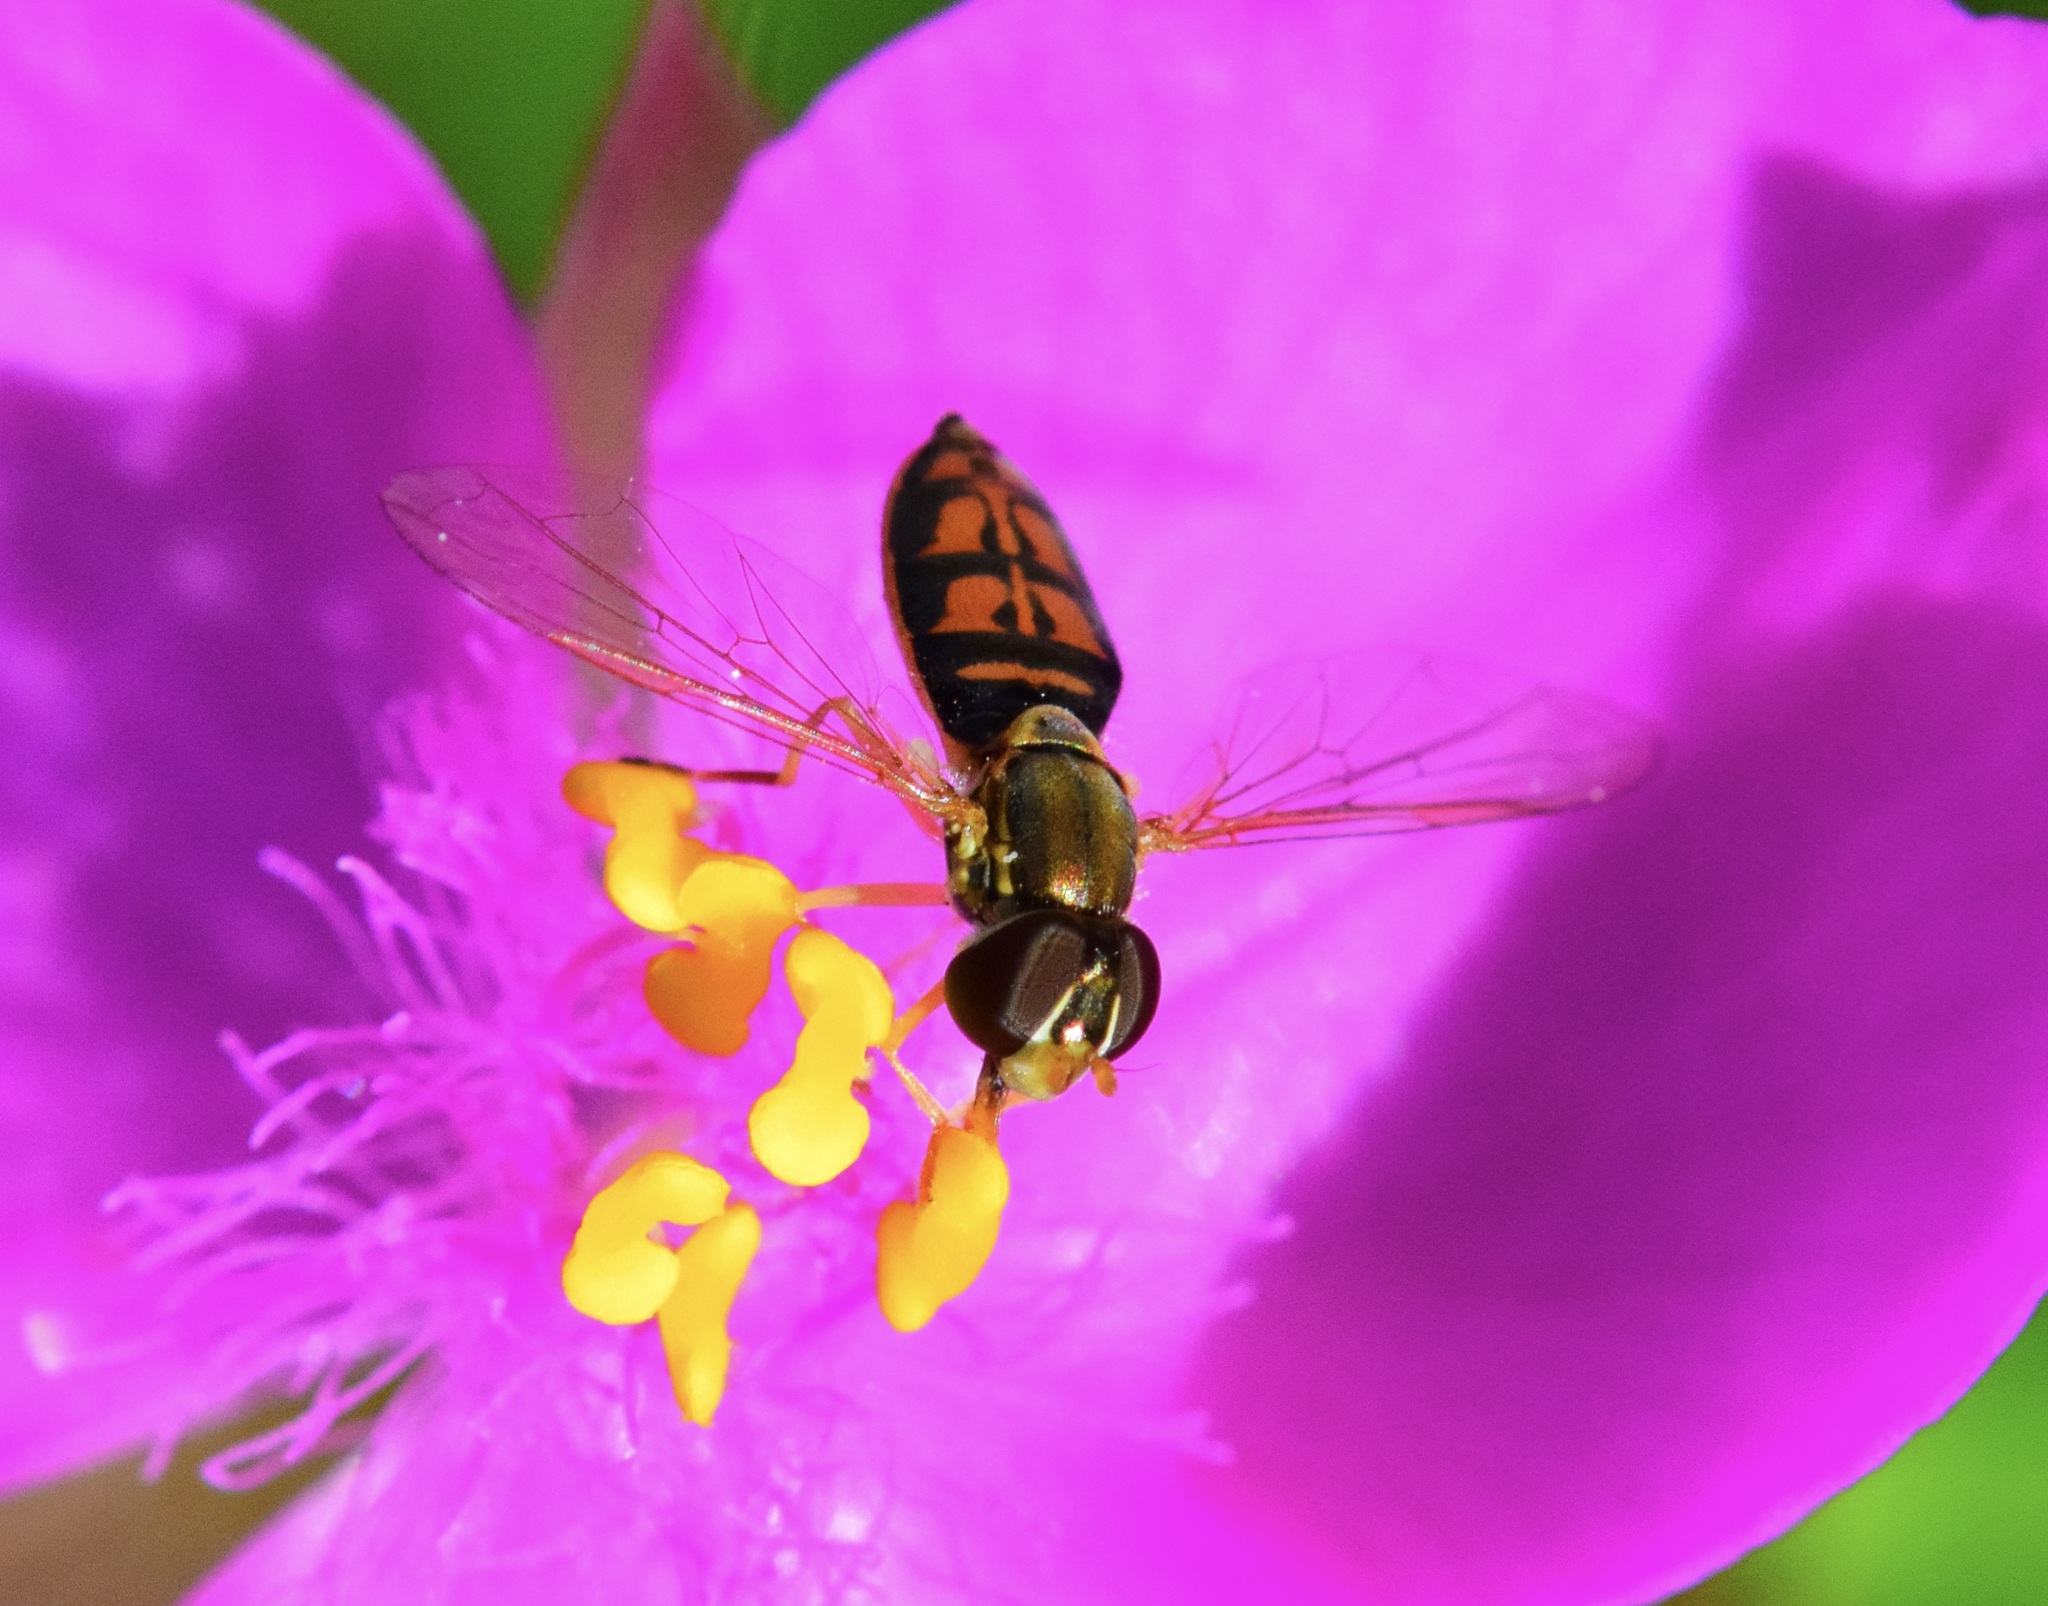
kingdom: Animalia
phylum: Arthropoda
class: Insecta
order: Diptera
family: Syrphidae
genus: Toxomerus
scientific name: Toxomerus marginatus
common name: Syrphid fly
